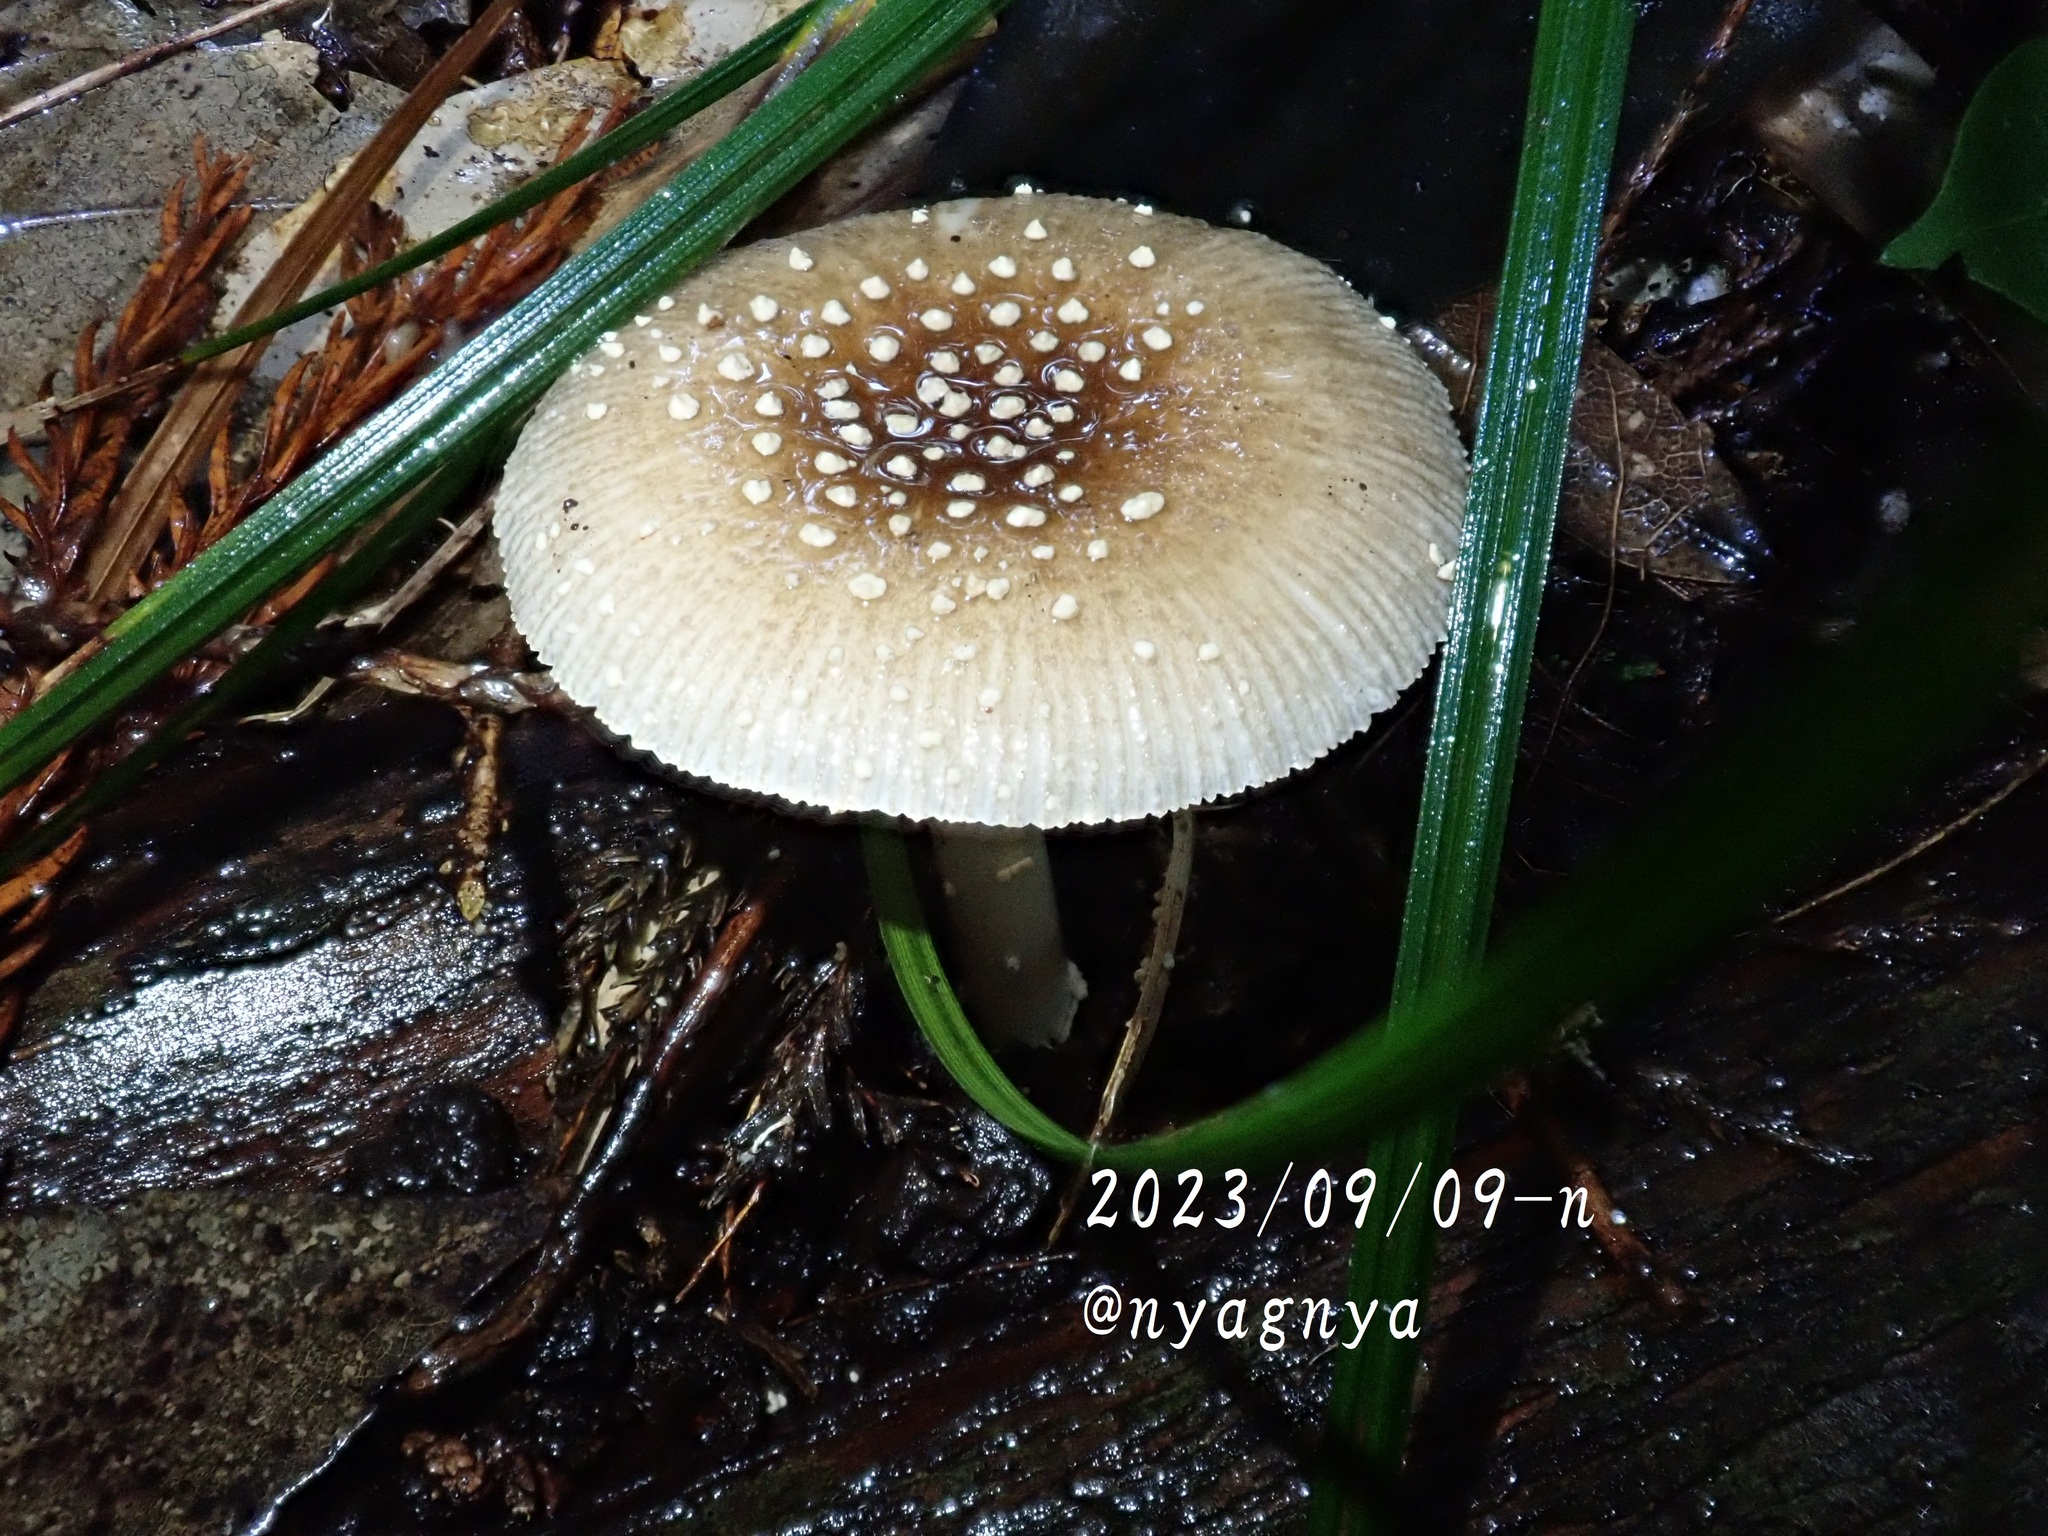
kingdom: Fungi
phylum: Basidiomycota
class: Agaricomycetes
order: Agaricales
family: Amanitaceae
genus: Amanita
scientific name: Amanita sychnopyramis
